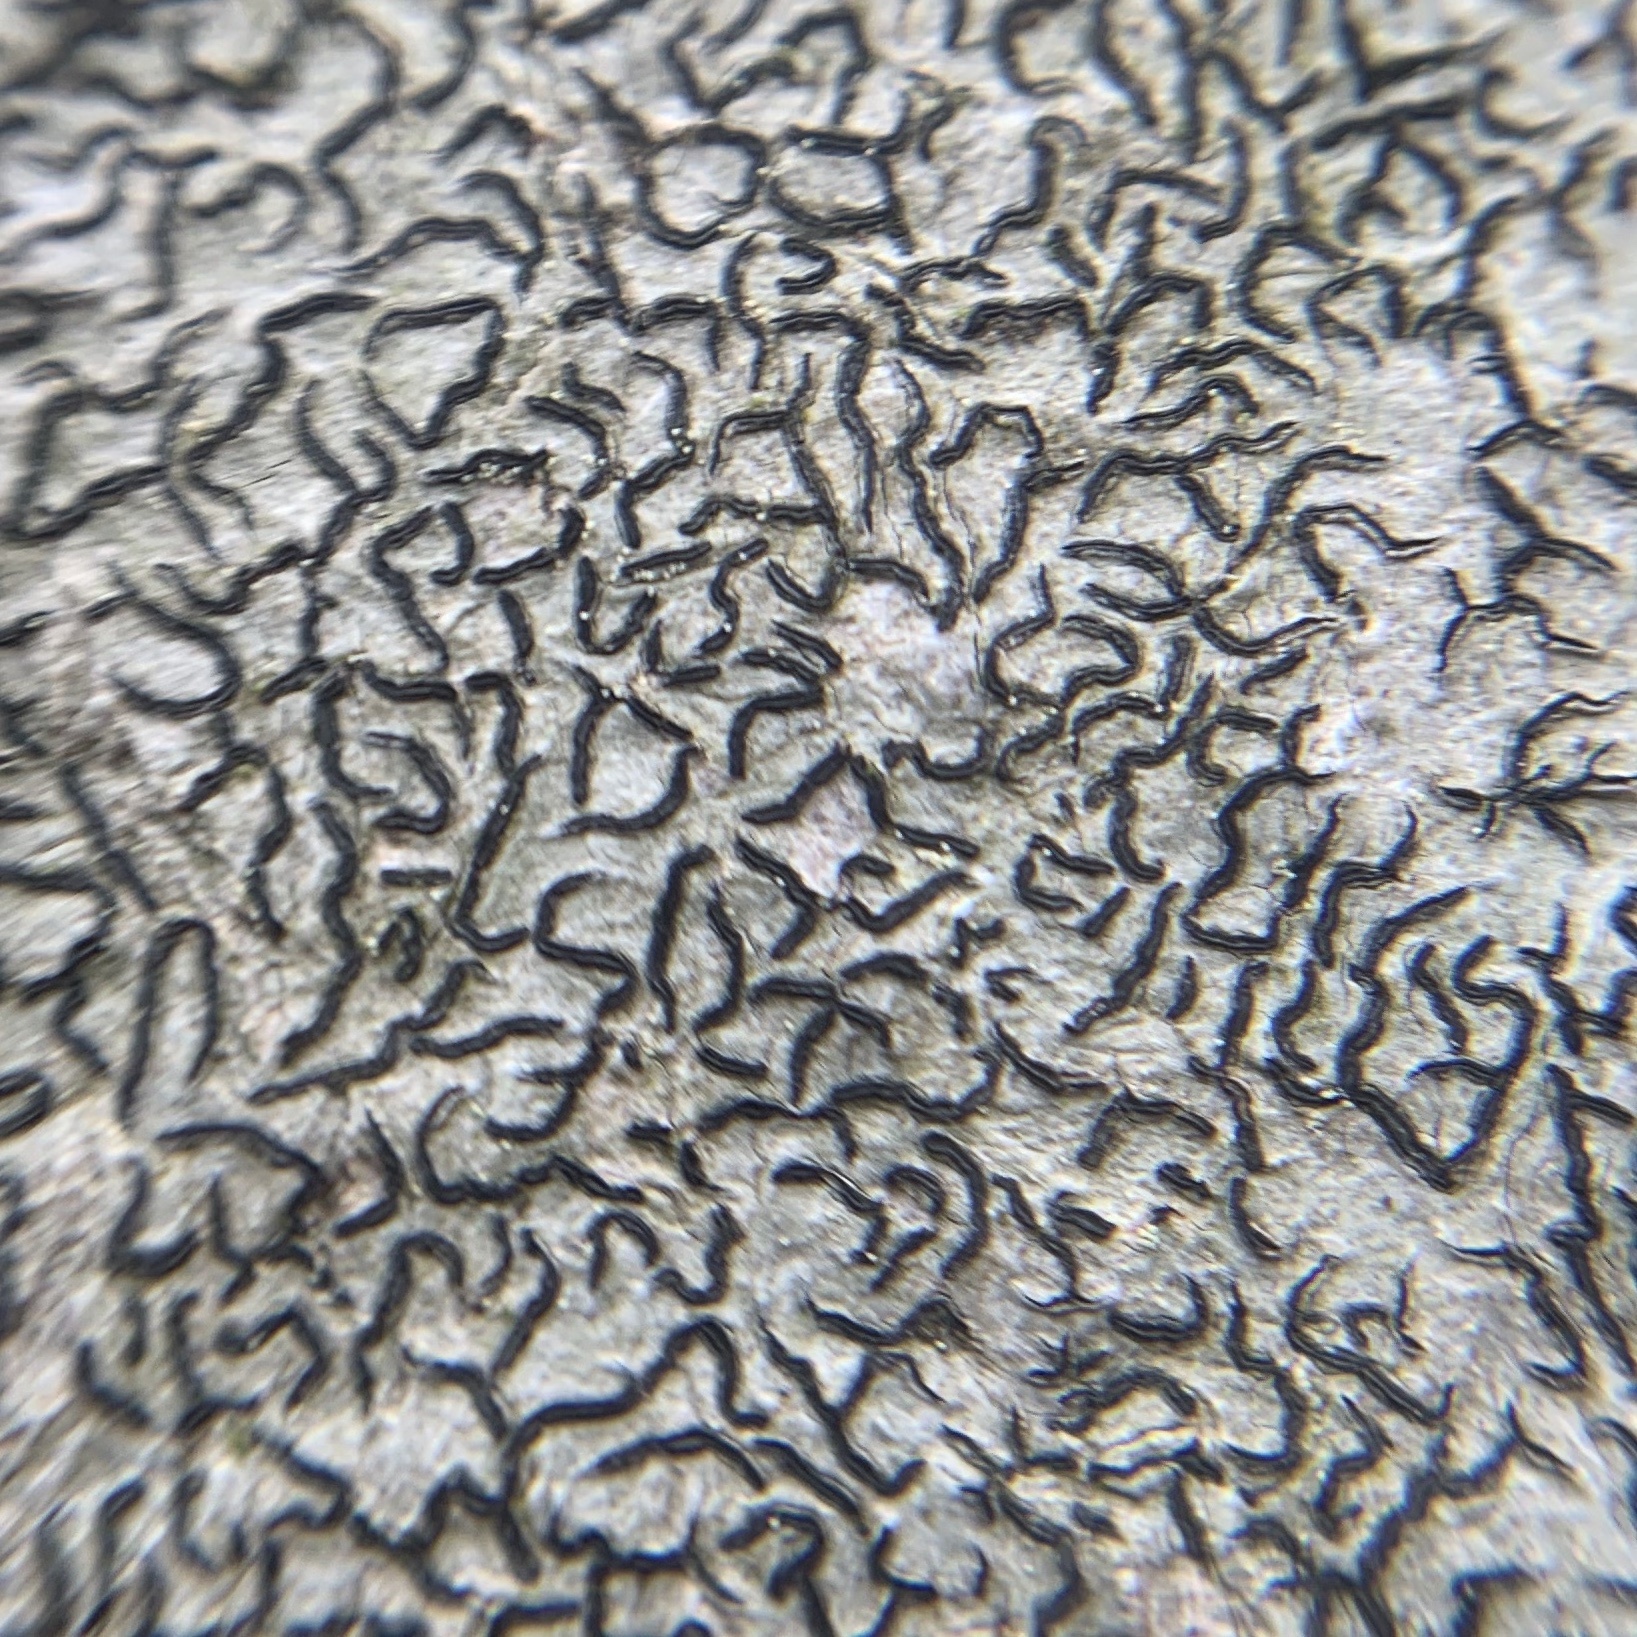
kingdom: Fungi
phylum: Ascomycota
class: Lecanoromycetes
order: Ostropales
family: Graphidaceae
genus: Graphis
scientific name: Graphis scripta
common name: Script lichen
